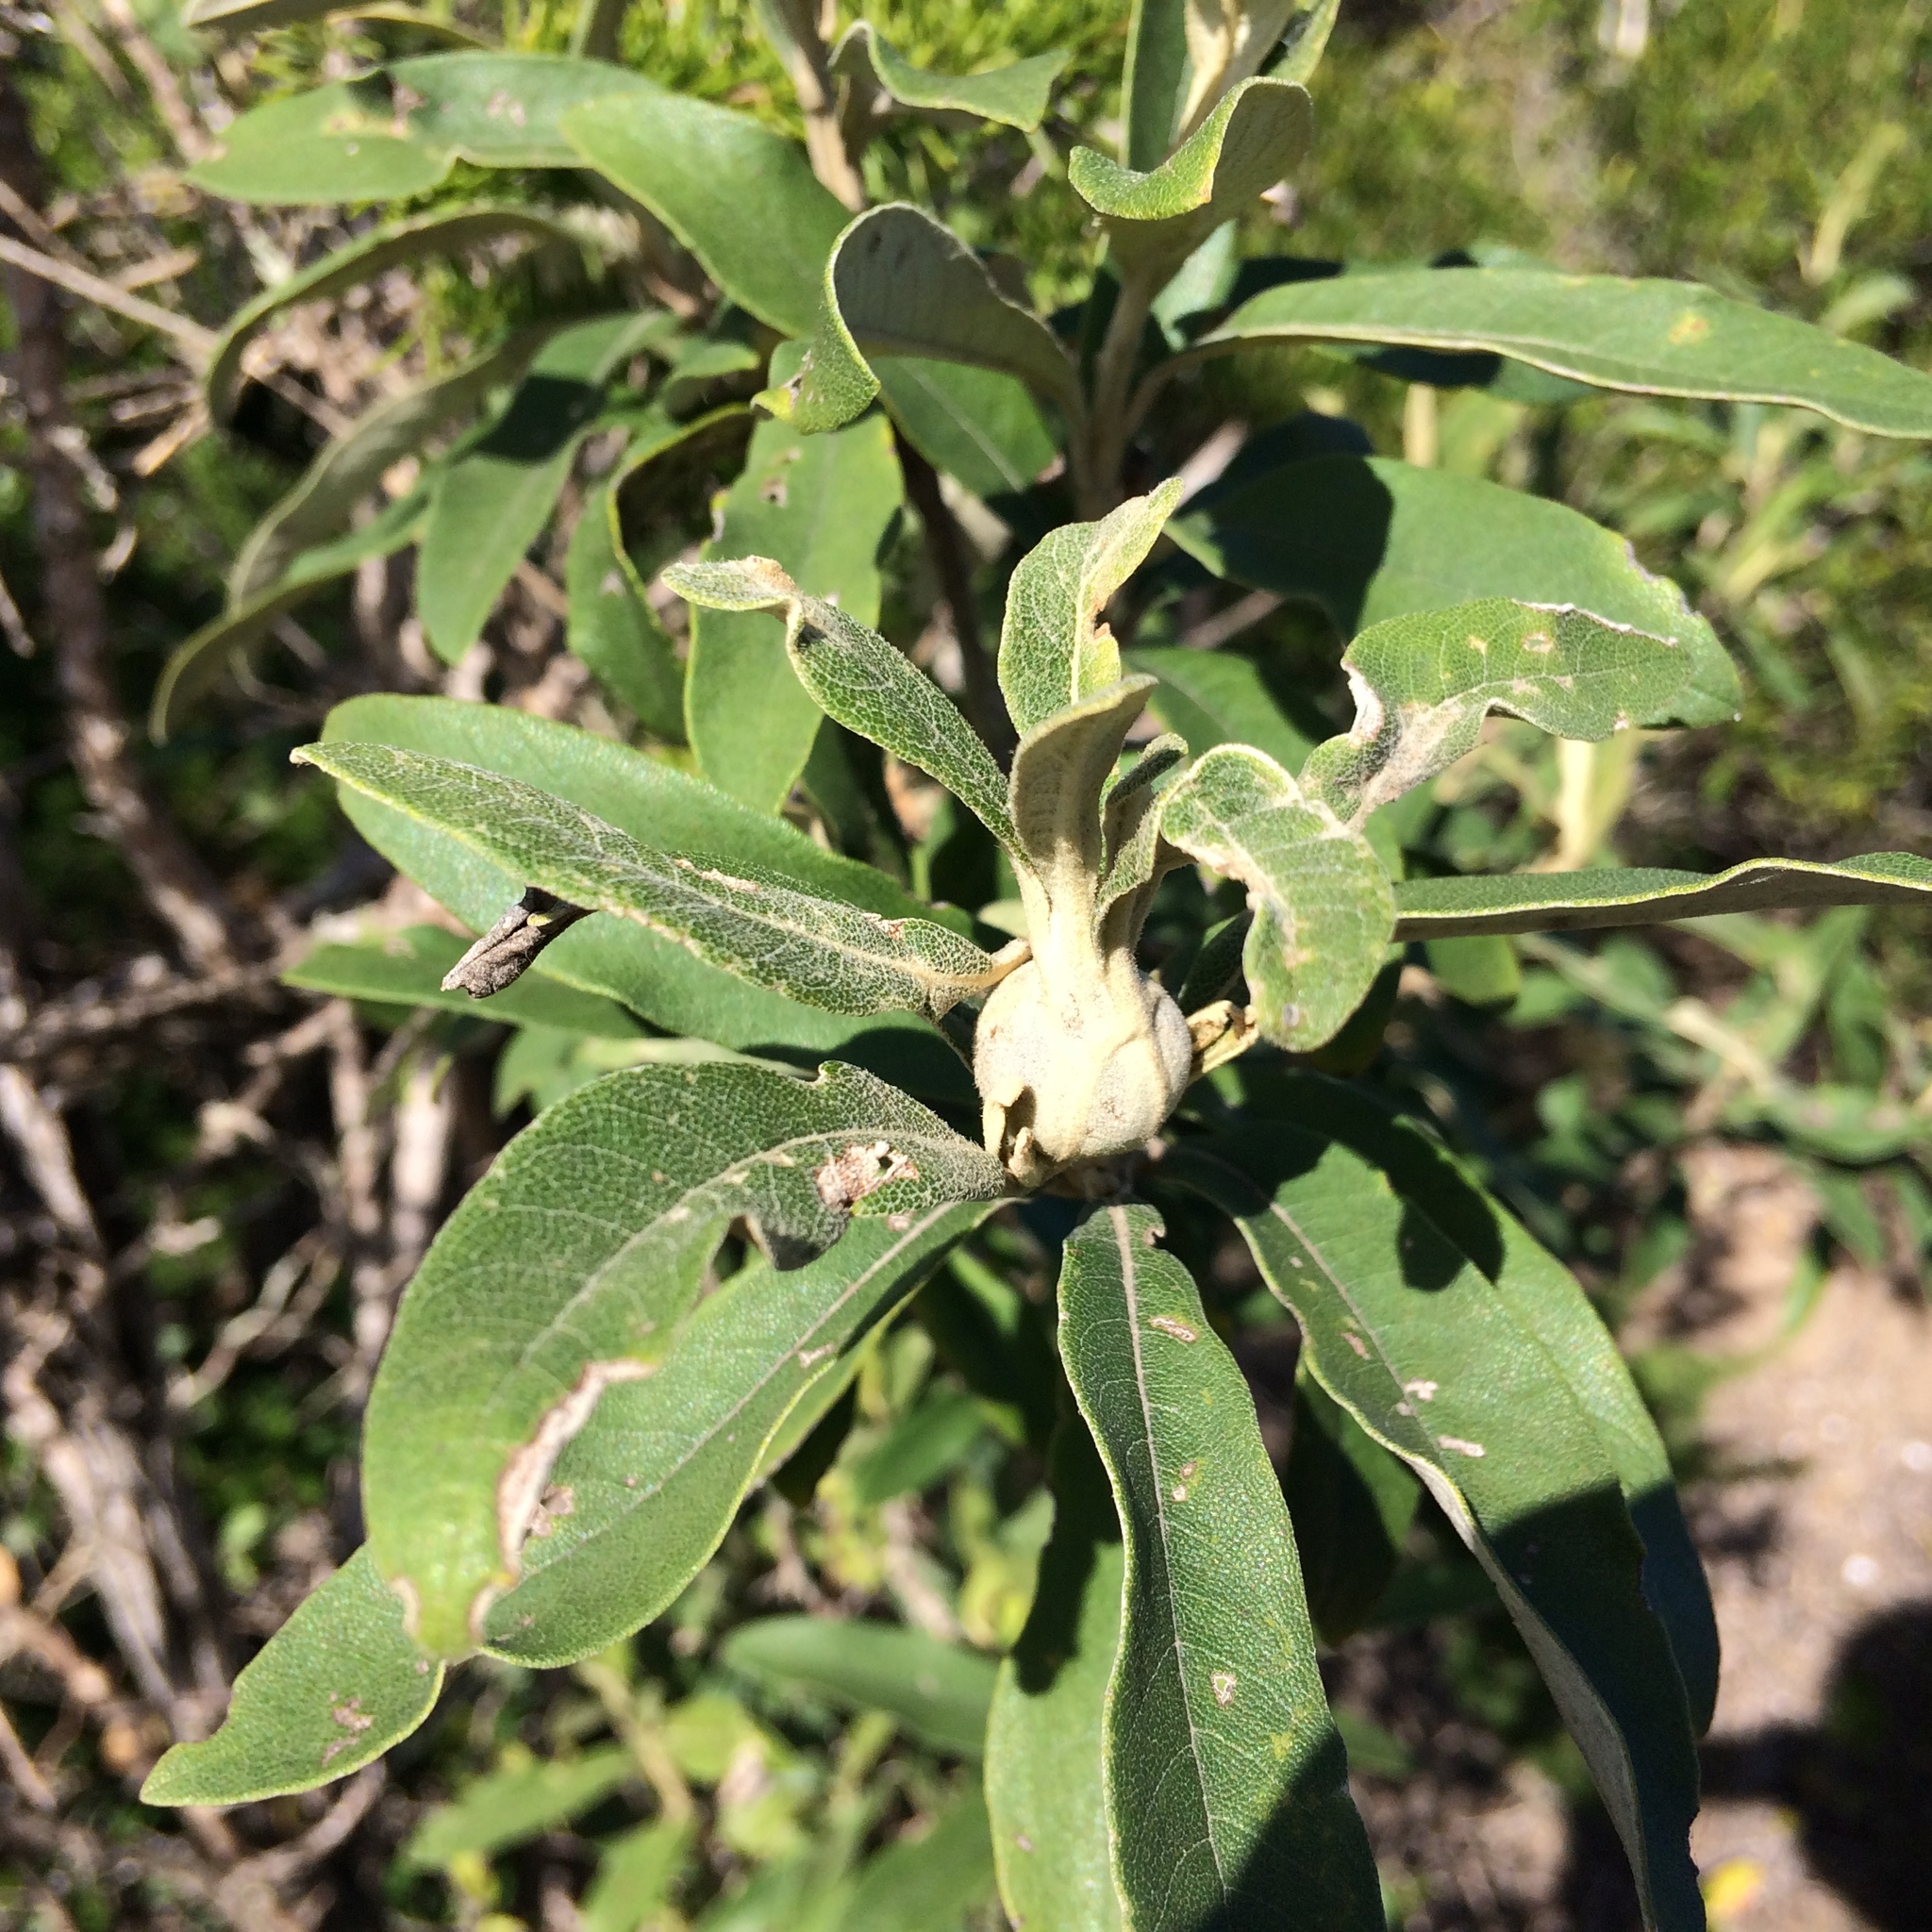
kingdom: Plantae
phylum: Tracheophyta
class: Magnoliopsida
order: Asterales
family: Asteraceae
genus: Tarchonanthus
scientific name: Tarchonanthus littoralis
